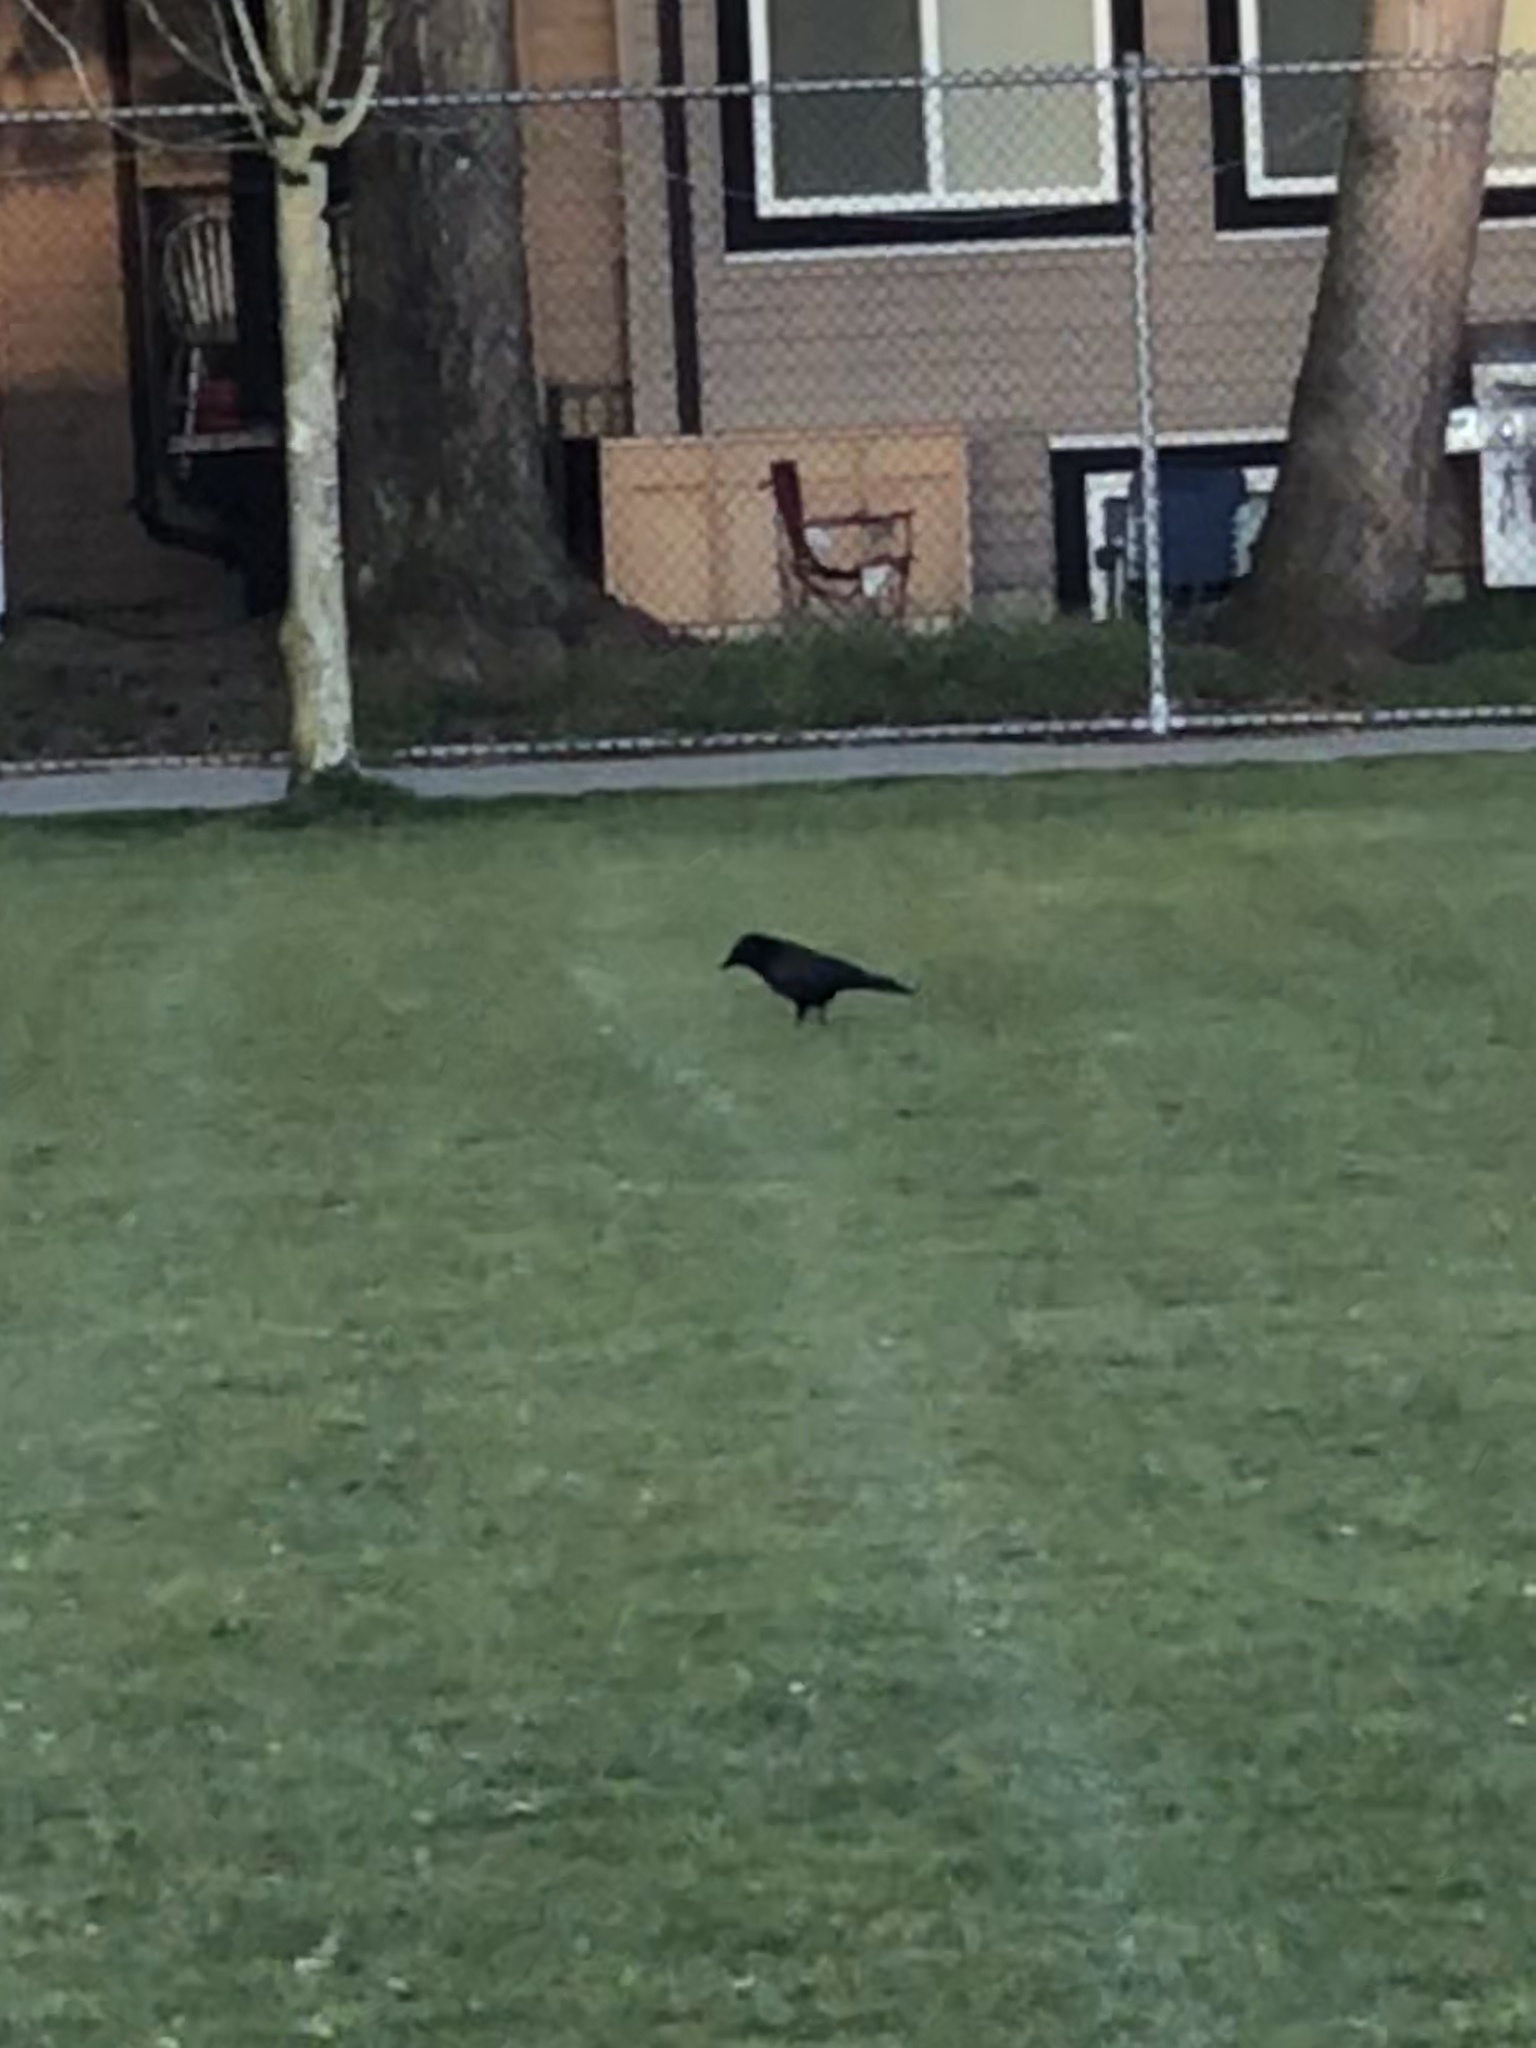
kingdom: Animalia
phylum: Chordata
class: Aves
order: Passeriformes
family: Corvidae
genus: Corvus
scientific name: Corvus brachyrhynchos
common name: American crow
